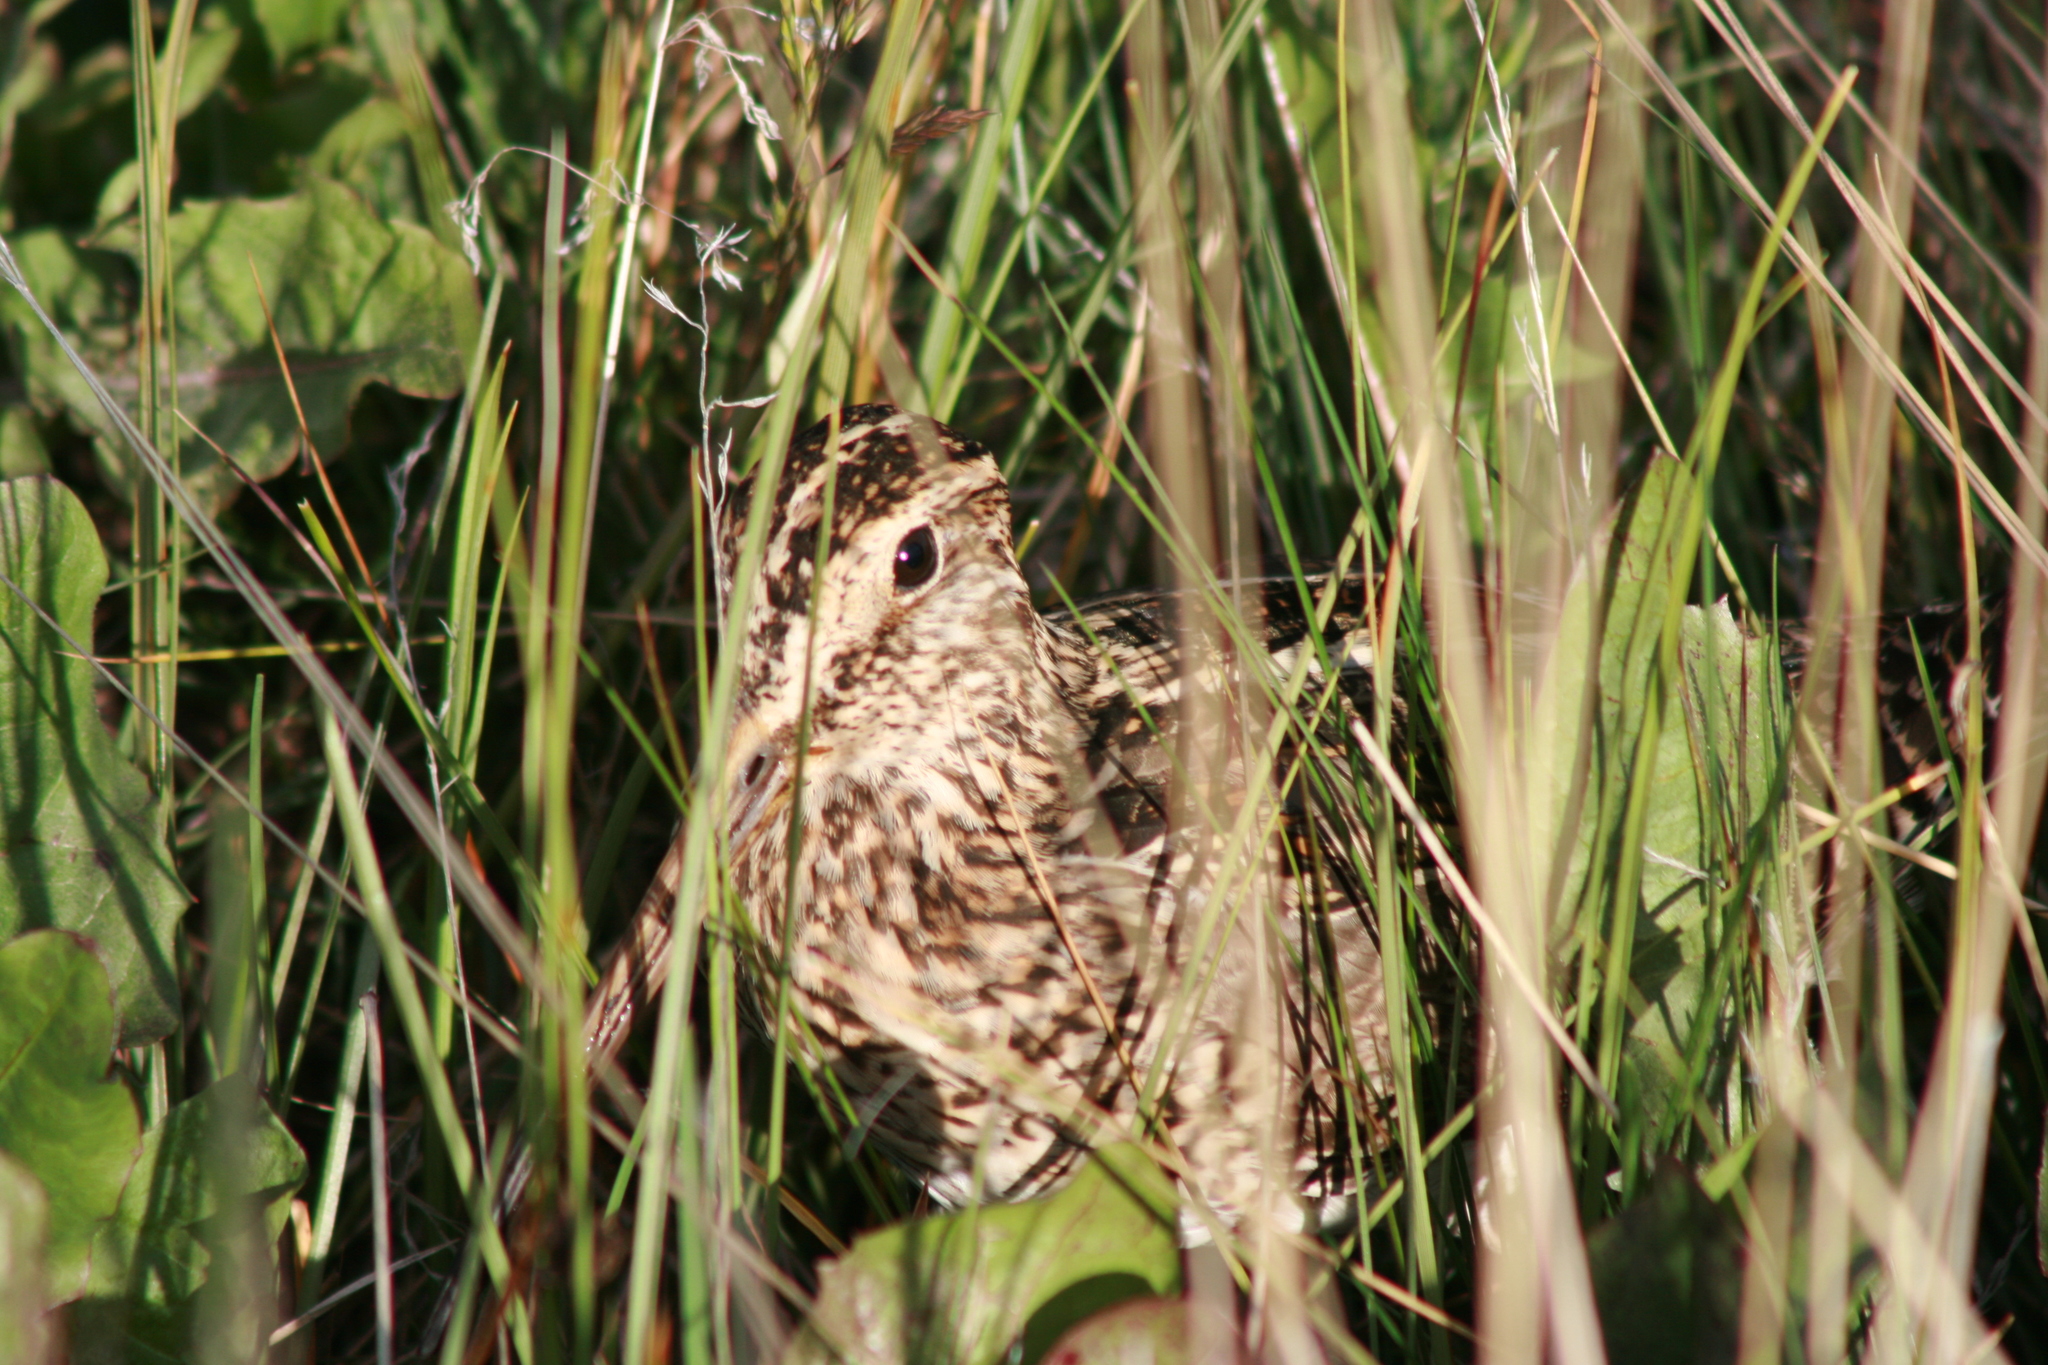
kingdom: Animalia
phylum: Chordata
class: Aves
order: Charadriiformes
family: Scolopacidae
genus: Gallinago
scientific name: Gallinago magellanica
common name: Magellanic snipe
